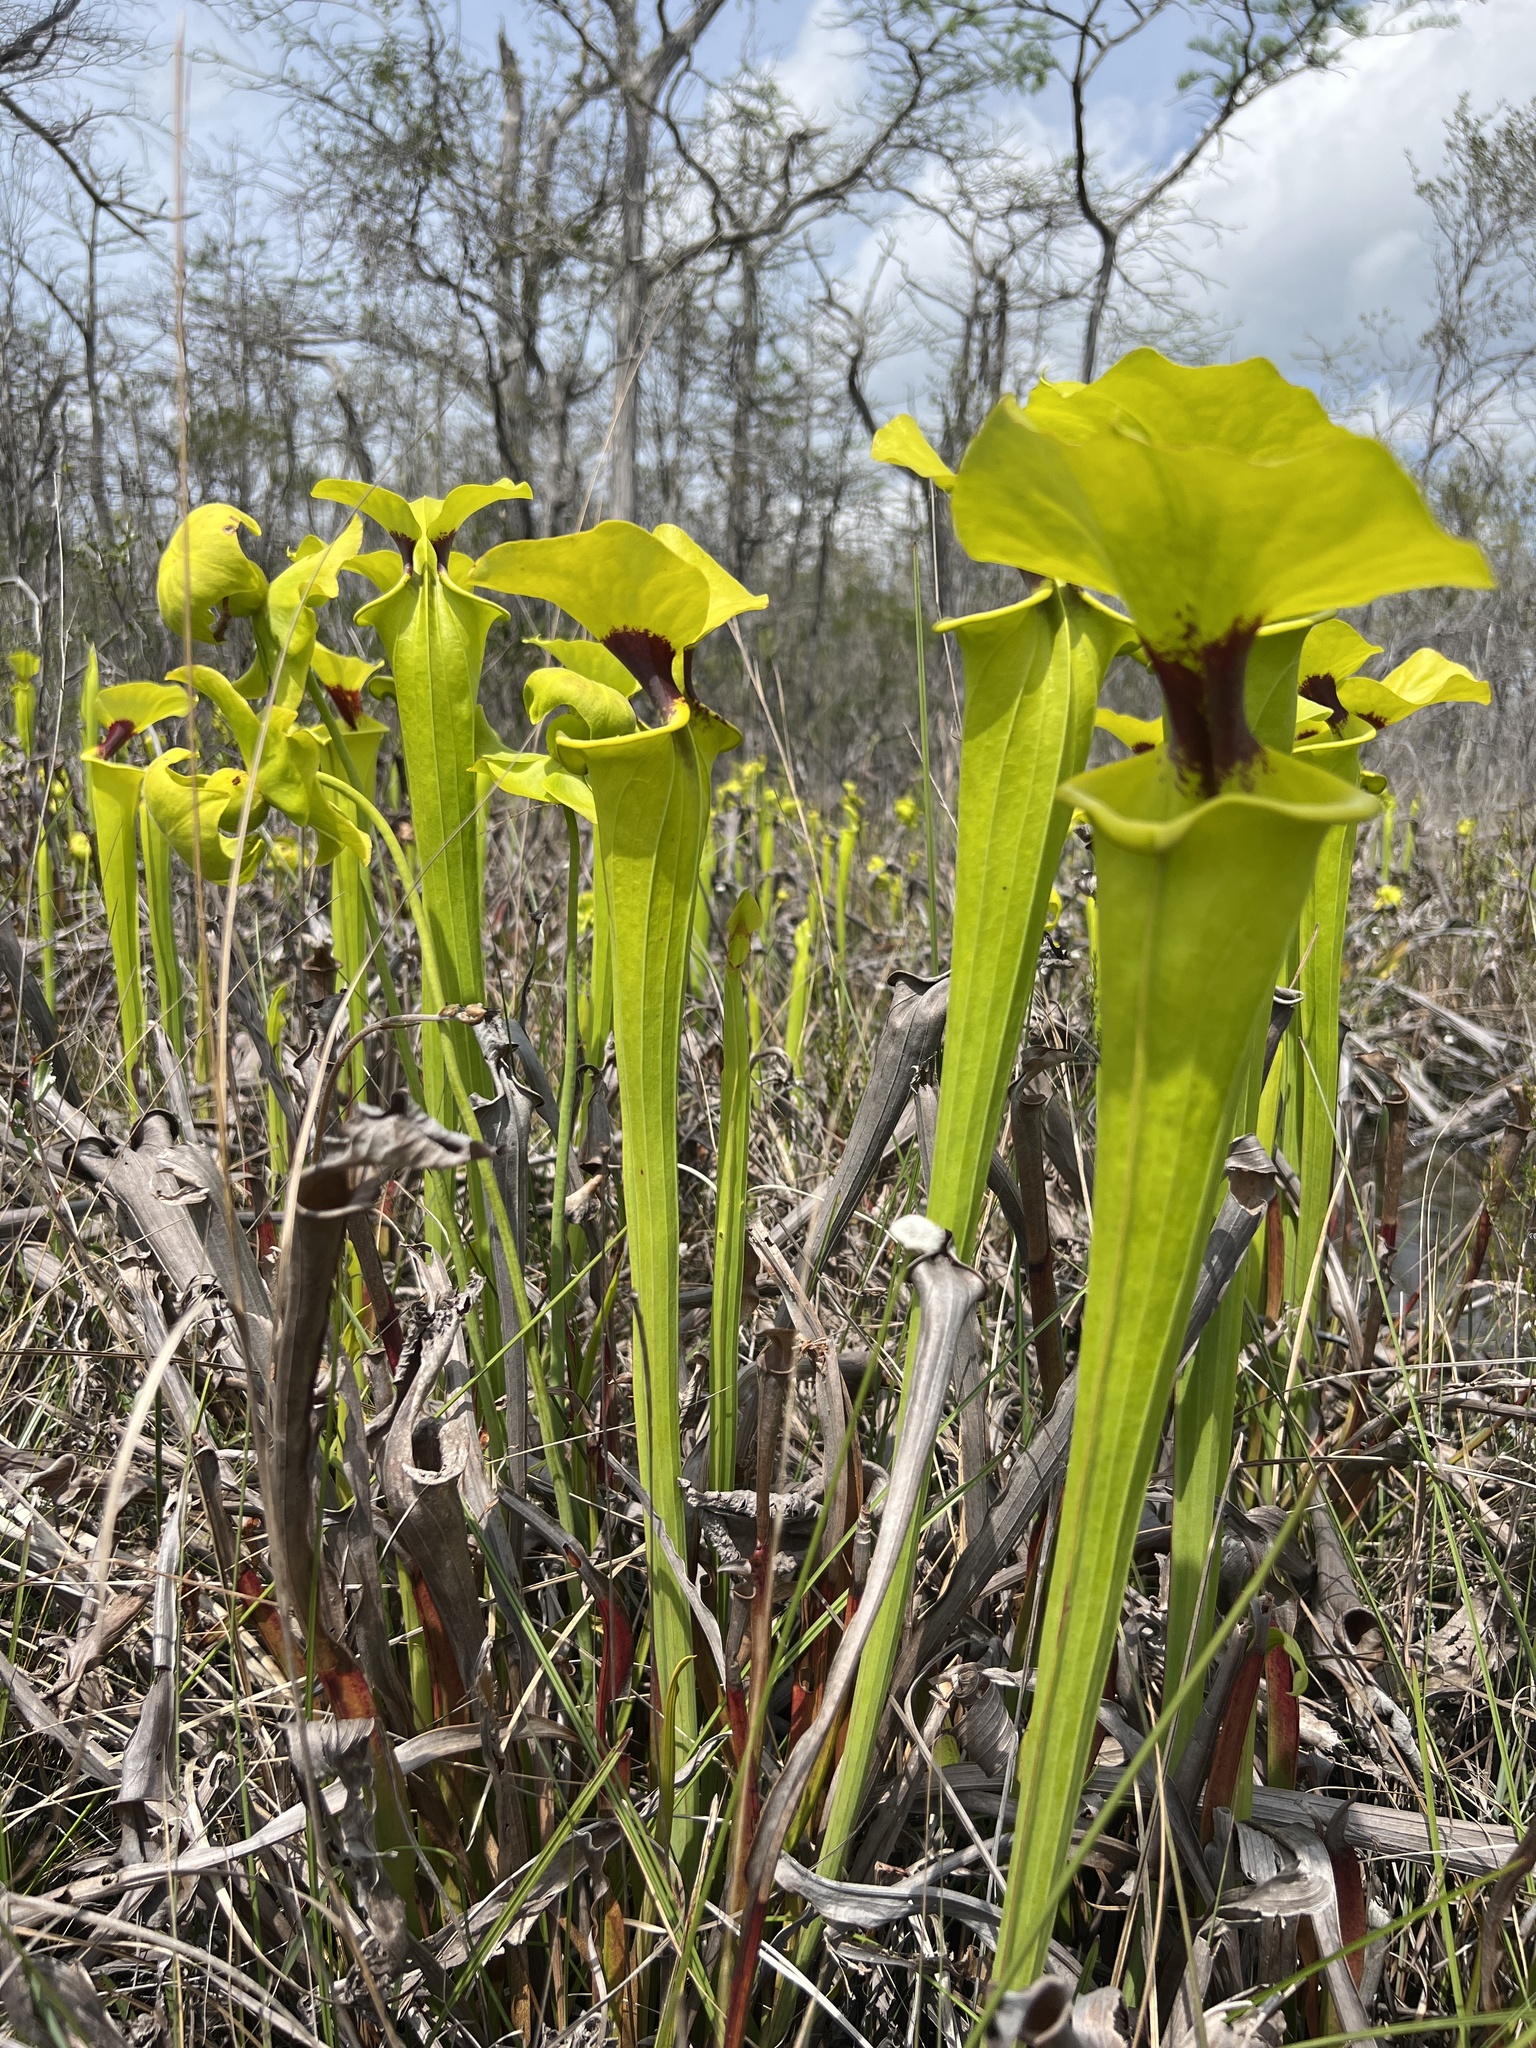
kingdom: Plantae
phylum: Tracheophyta
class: Magnoliopsida
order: Ericales
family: Sarraceniaceae
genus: Sarracenia
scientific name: Sarracenia flava
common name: Trumpets
